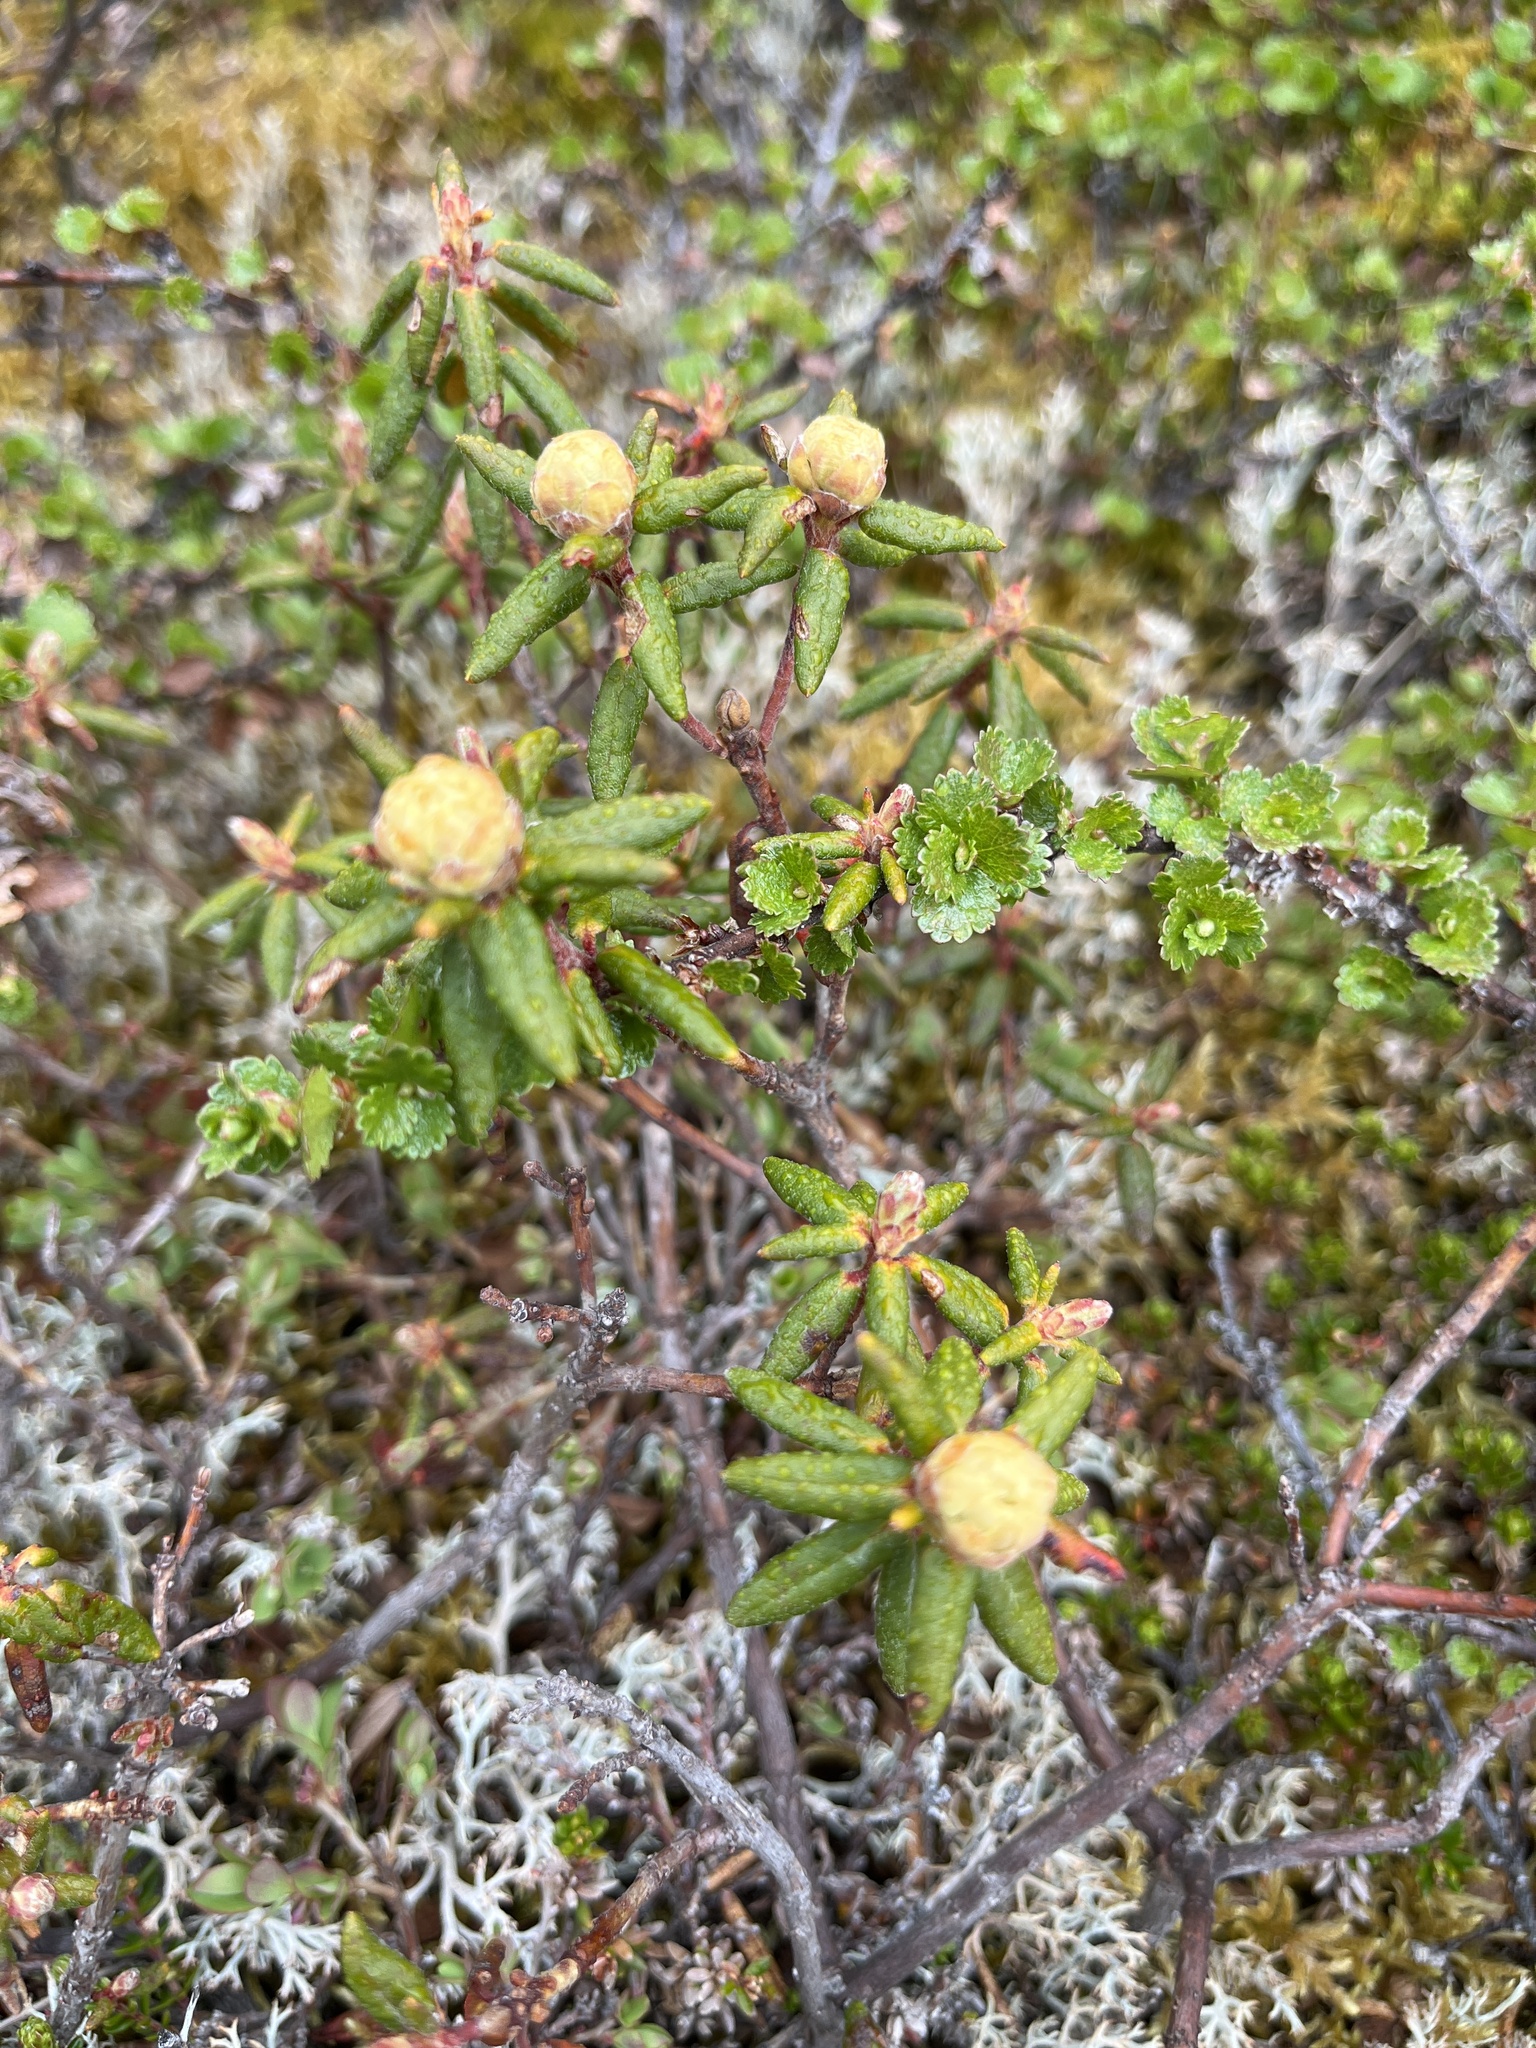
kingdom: Plantae
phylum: Tracheophyta
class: Magnoliopsida
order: Ericales
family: Ericaceae
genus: Rhododendron
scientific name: Rhododendron groenlandicum
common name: Bog labrador tea
